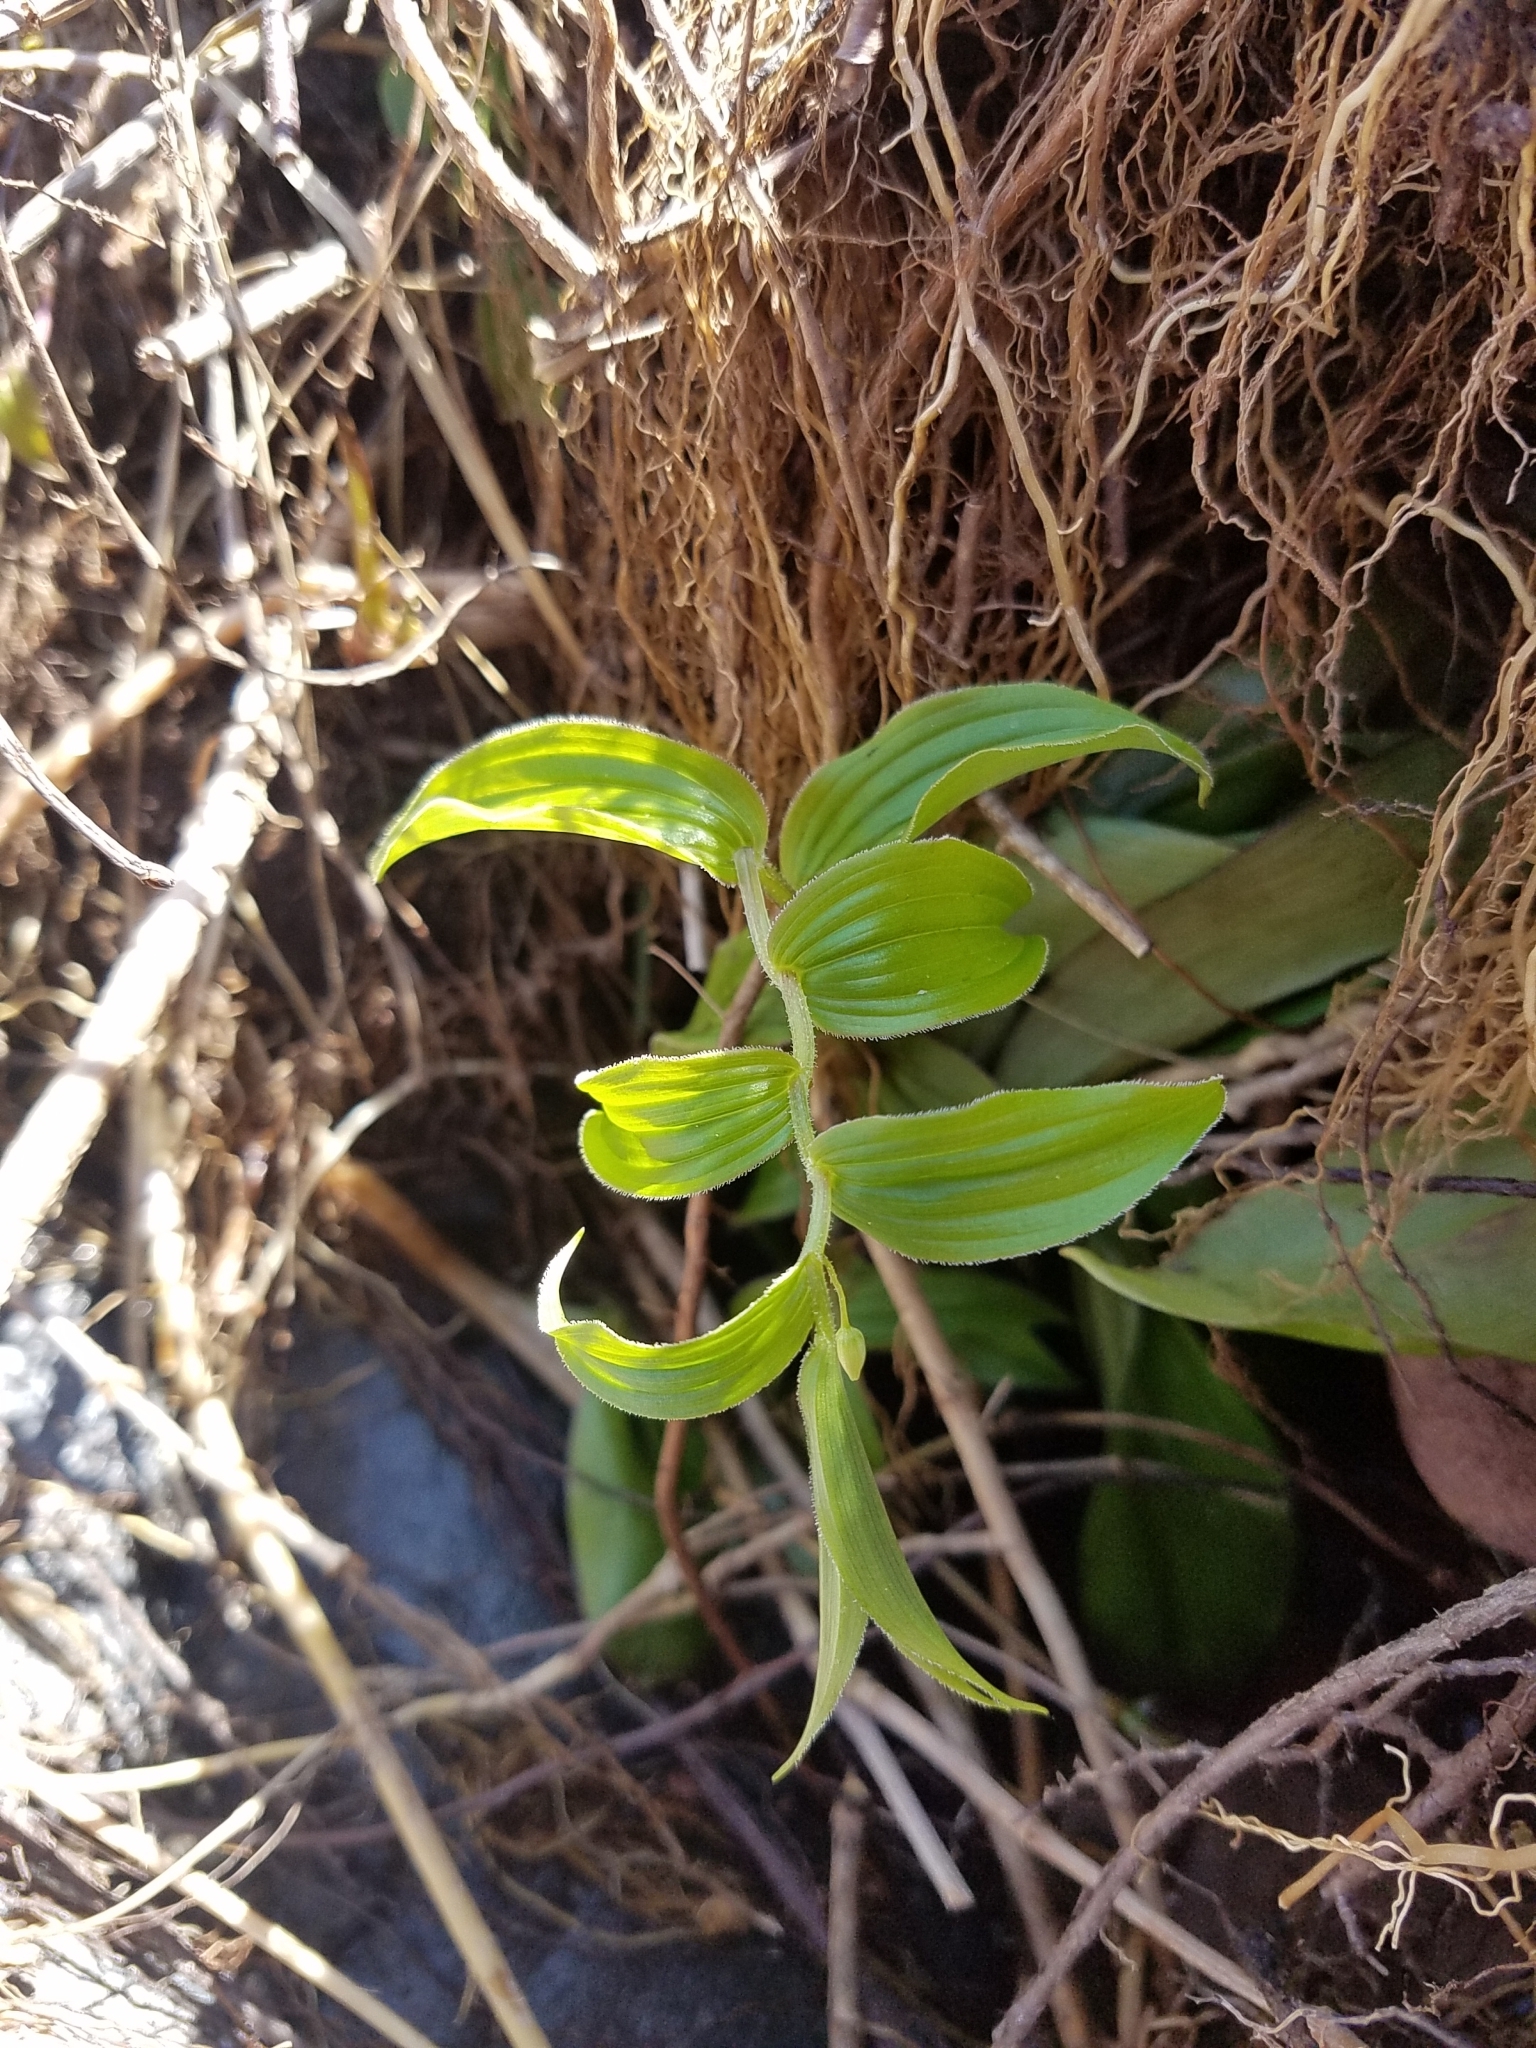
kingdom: Plantae
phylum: Tracheophyta
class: Liliopsida
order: Liliales
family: Liliaceae
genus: Streptopus
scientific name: Streptopus lanceolatus
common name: Rose mandarin
